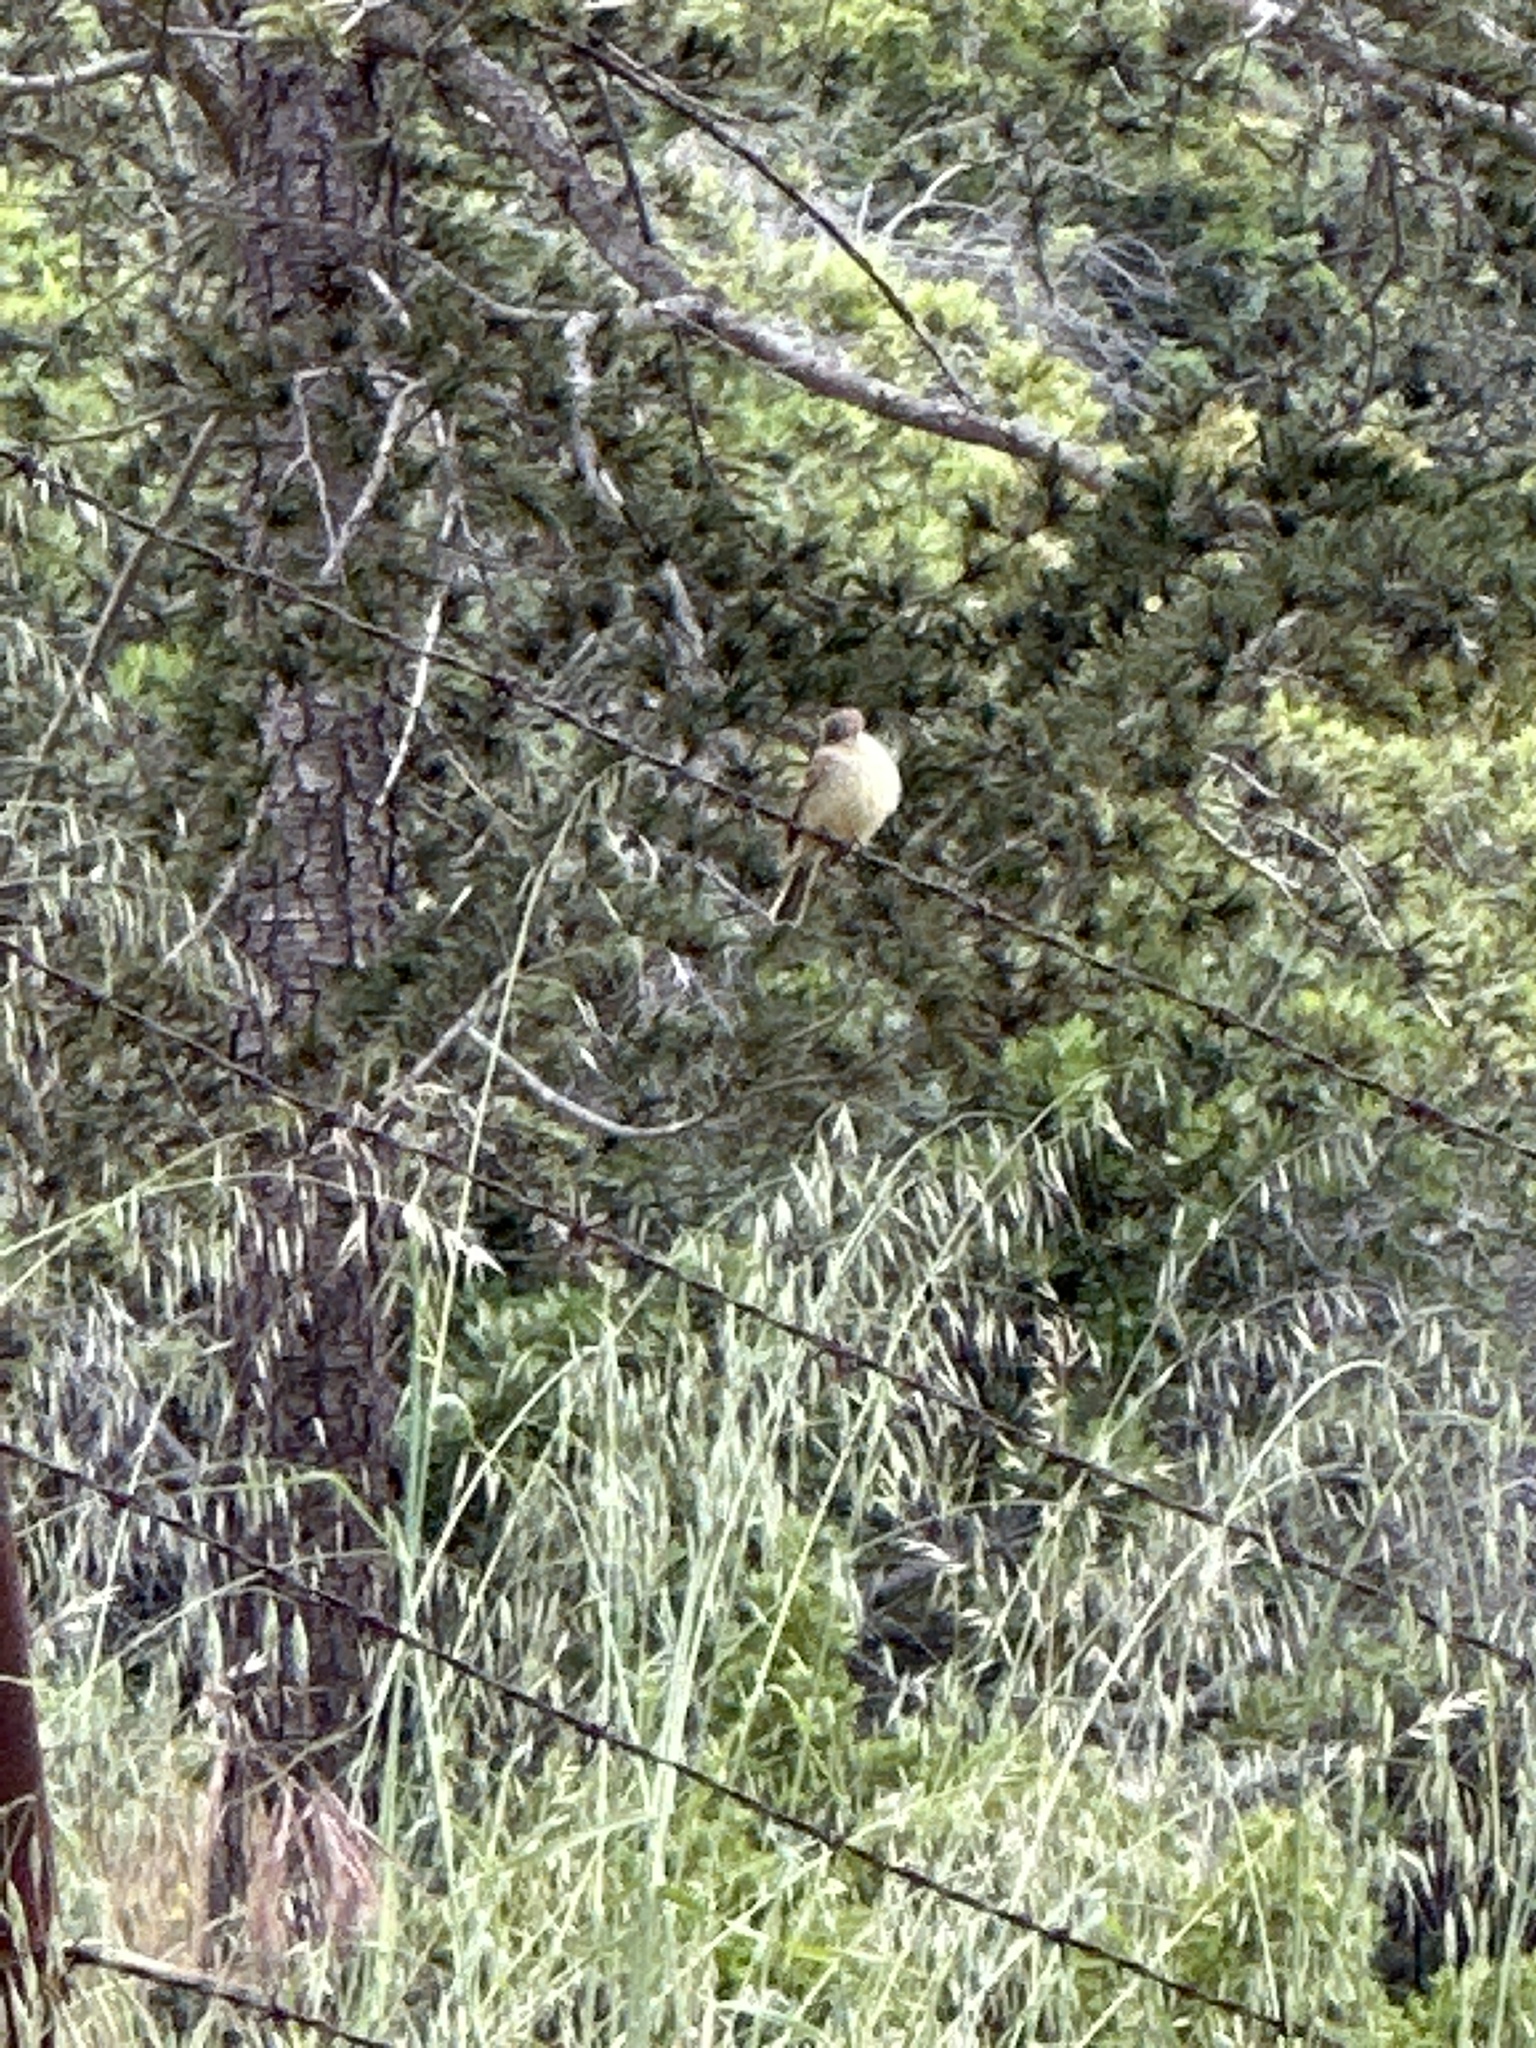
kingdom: Animalia
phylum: Chordata
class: Aves
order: Passeriformes
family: Tyrannidae
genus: Empidonax
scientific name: Empidonax difficilis
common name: Pacific-slope flycatcher
